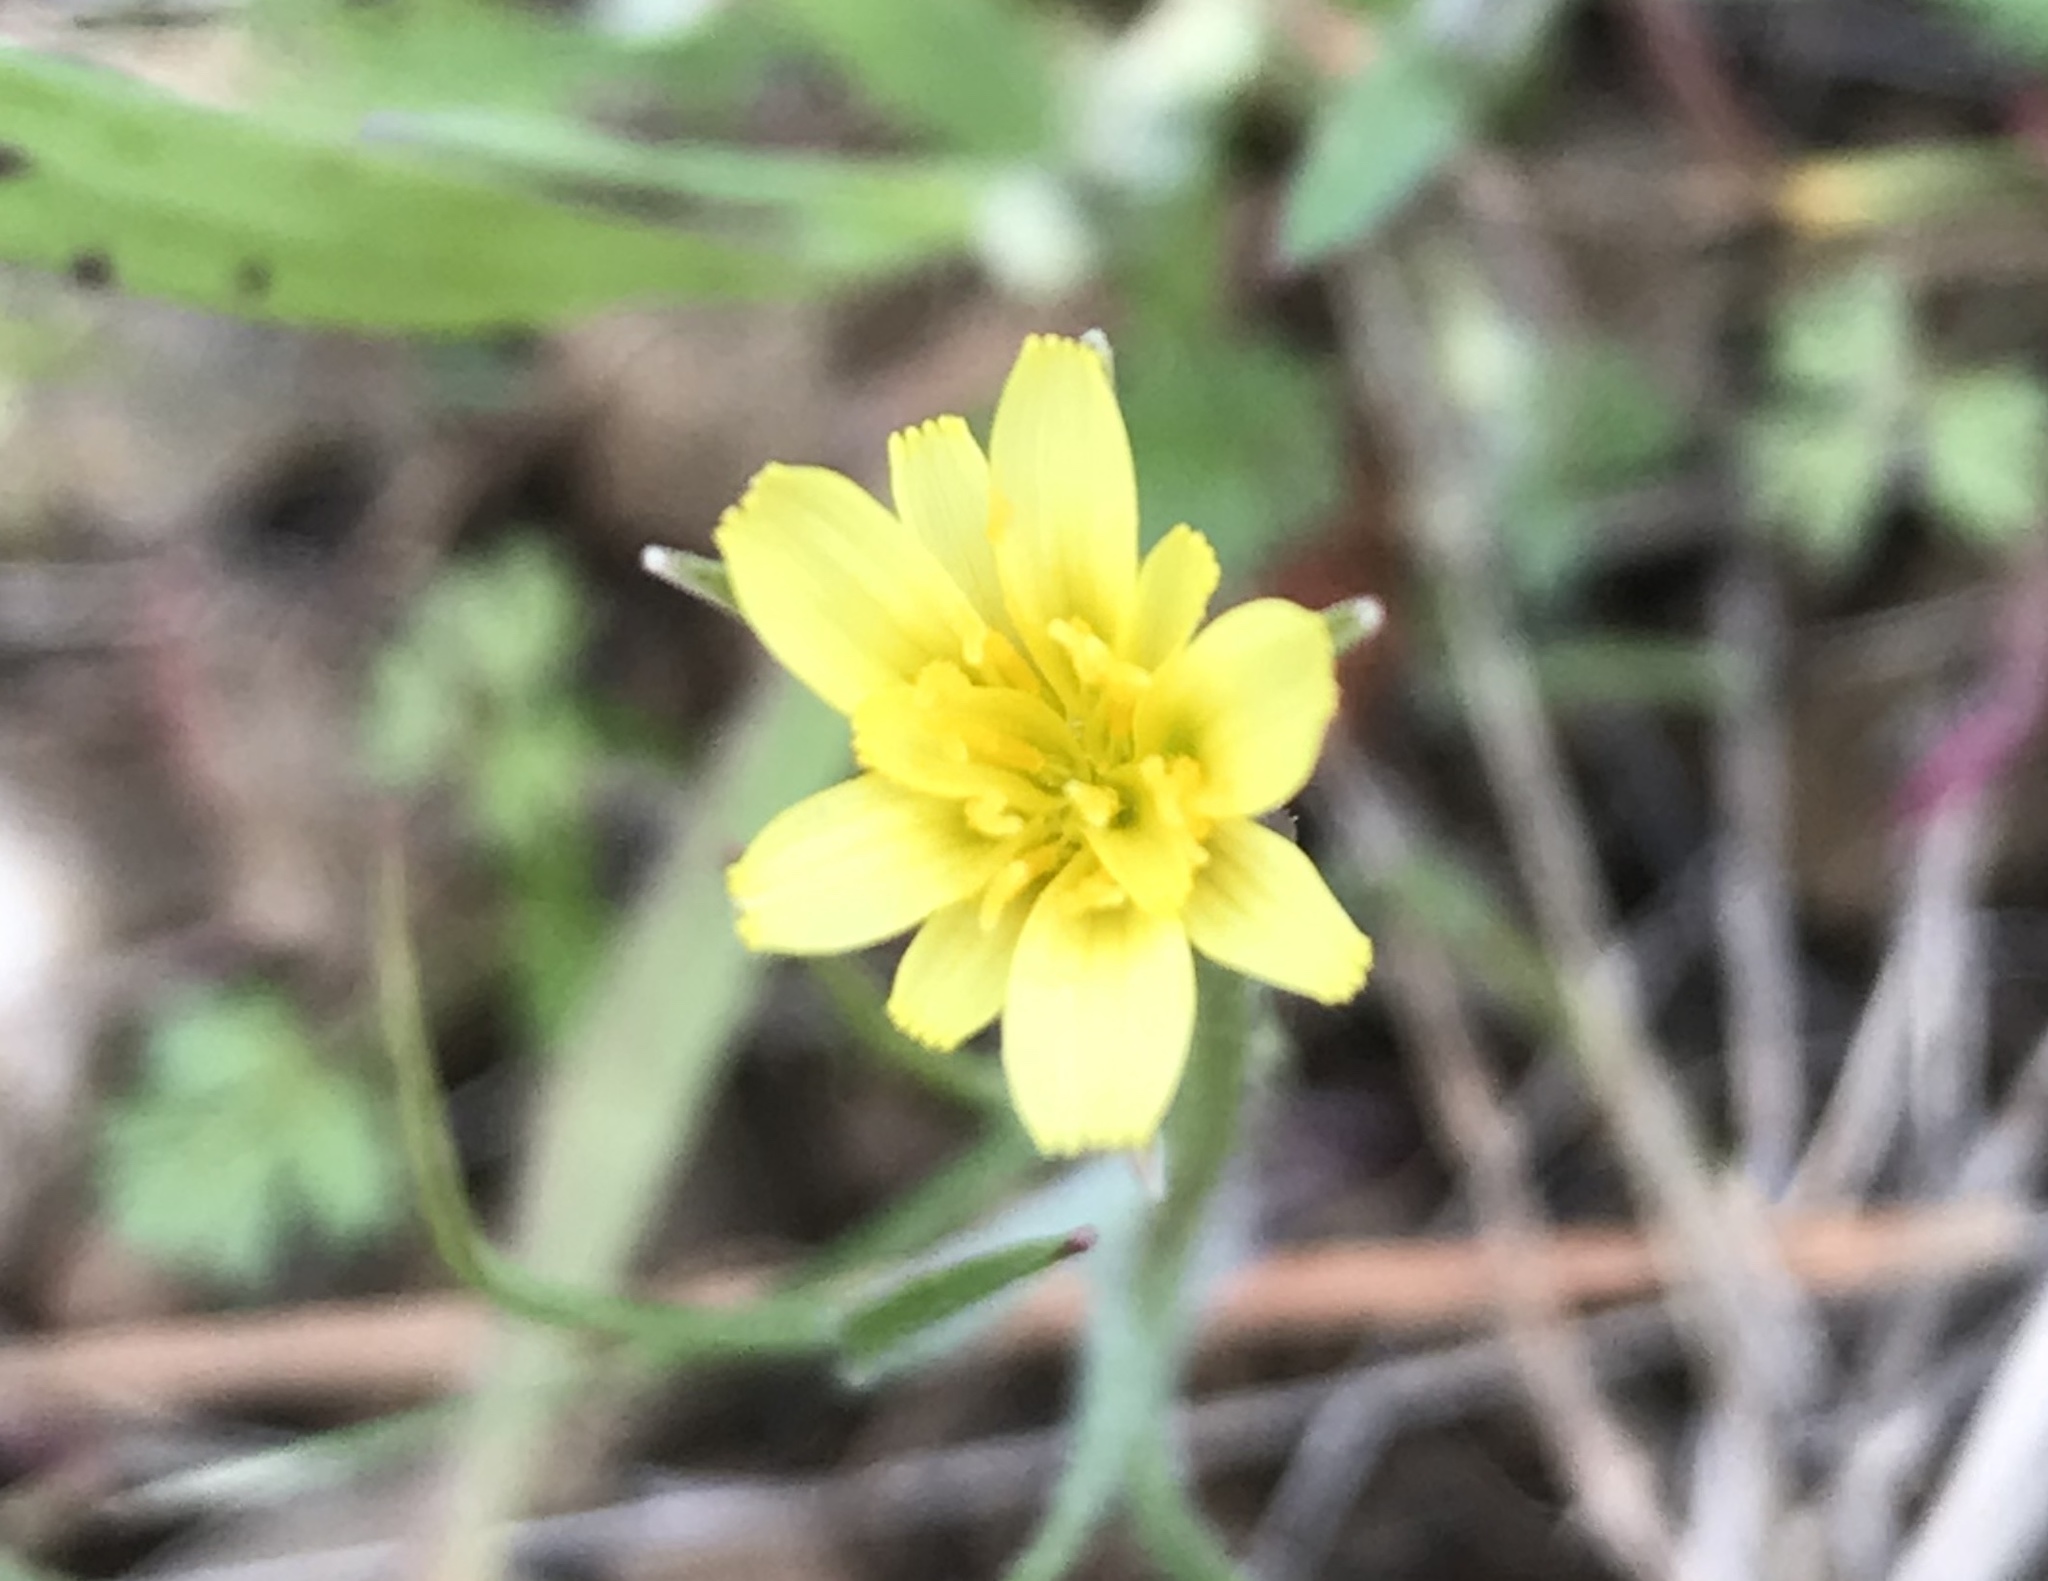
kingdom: Plantae
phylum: Tracheophyta
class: Magnoliopsida
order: Asterales
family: Asteraceae
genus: Microseris
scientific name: Microseris lindleyi
